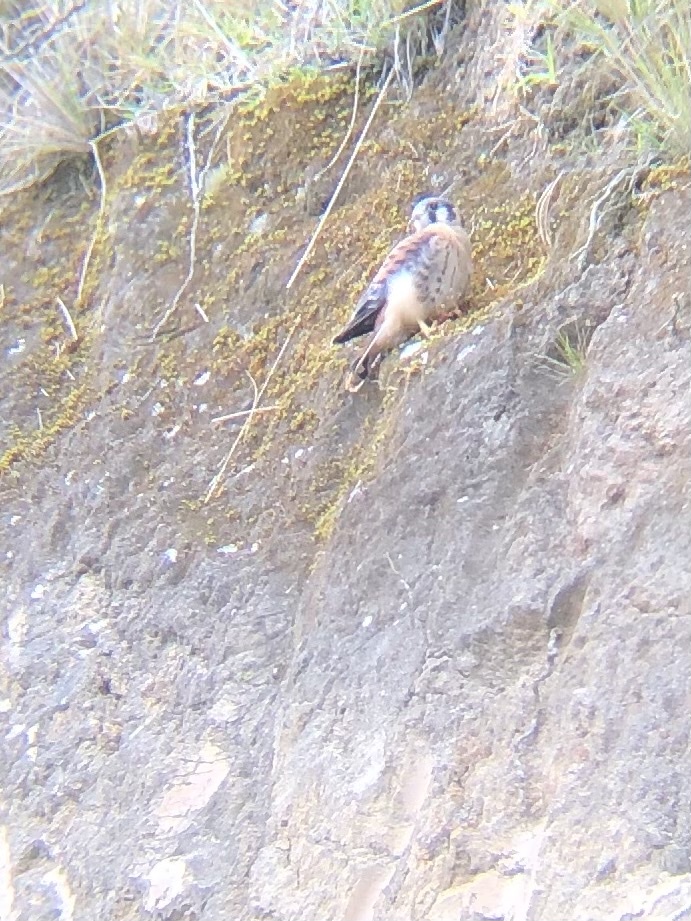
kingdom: Animalia
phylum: Chordata
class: Aves
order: Falconiformes
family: Falconidae
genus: Falco
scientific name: Falco sparverius
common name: American kestrel
